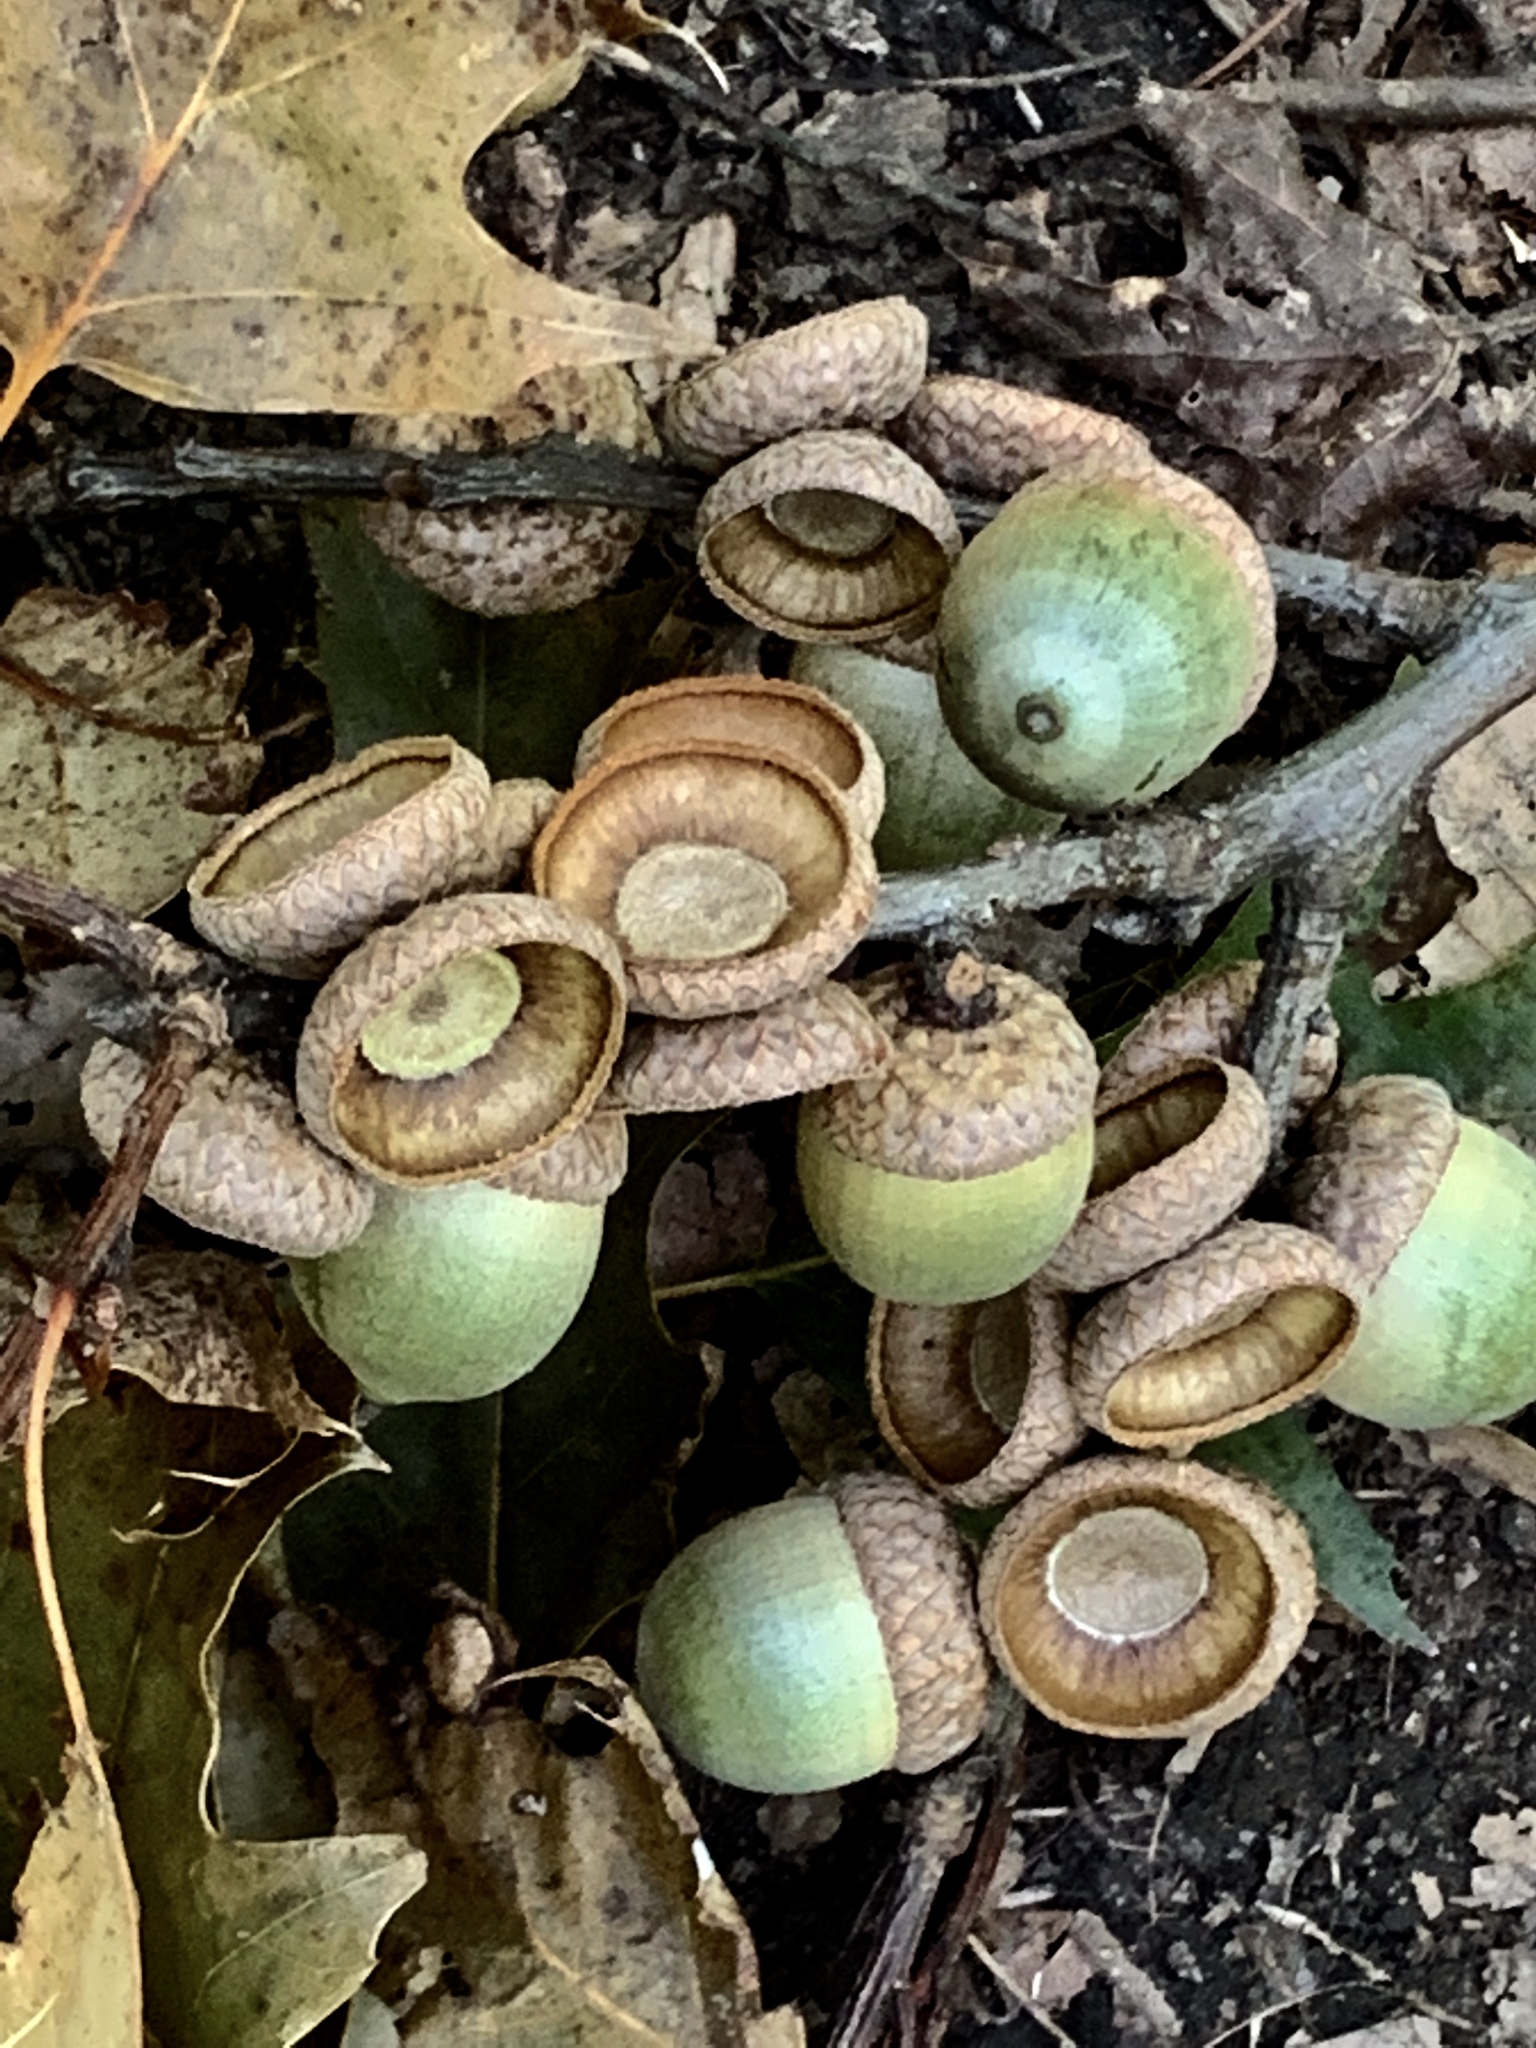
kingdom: Plantae
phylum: Tracheophyta
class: Magnoliopsida
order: Fagales
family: Fagaceae
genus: Quercus
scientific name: Quercus rubra
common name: Red oak
